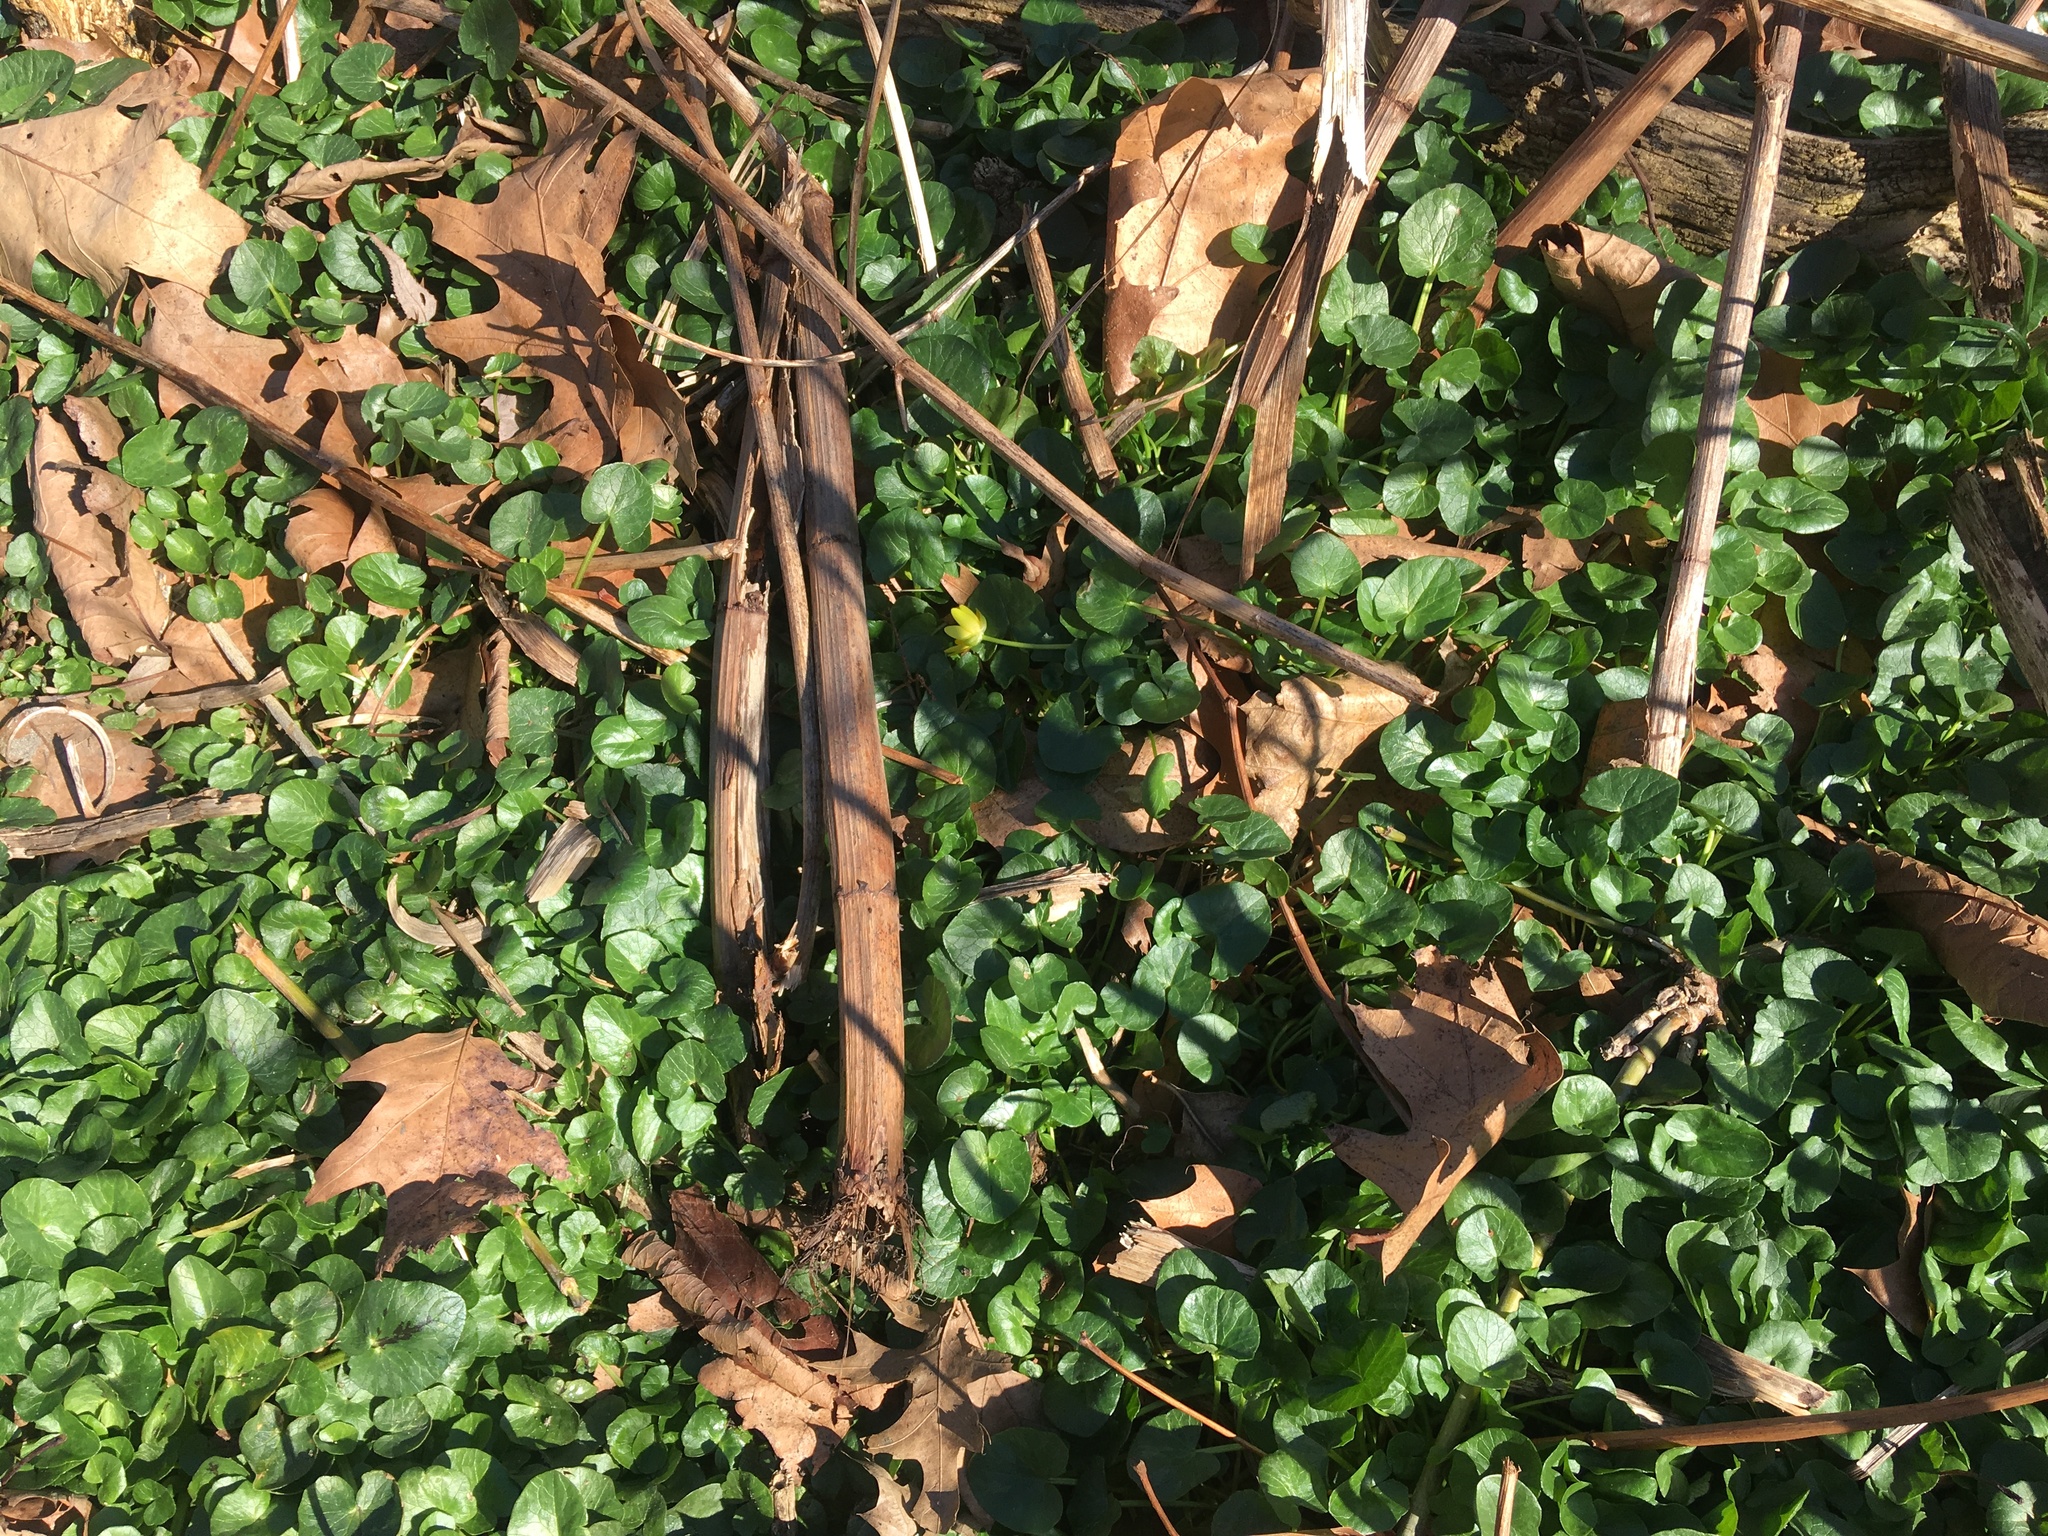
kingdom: Plantae
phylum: Tracheophyta
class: Magnoliopsida
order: Ranunculales
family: Ranunculaceae
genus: Ficaria
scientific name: Ficaria verna
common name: Lesser celandine
